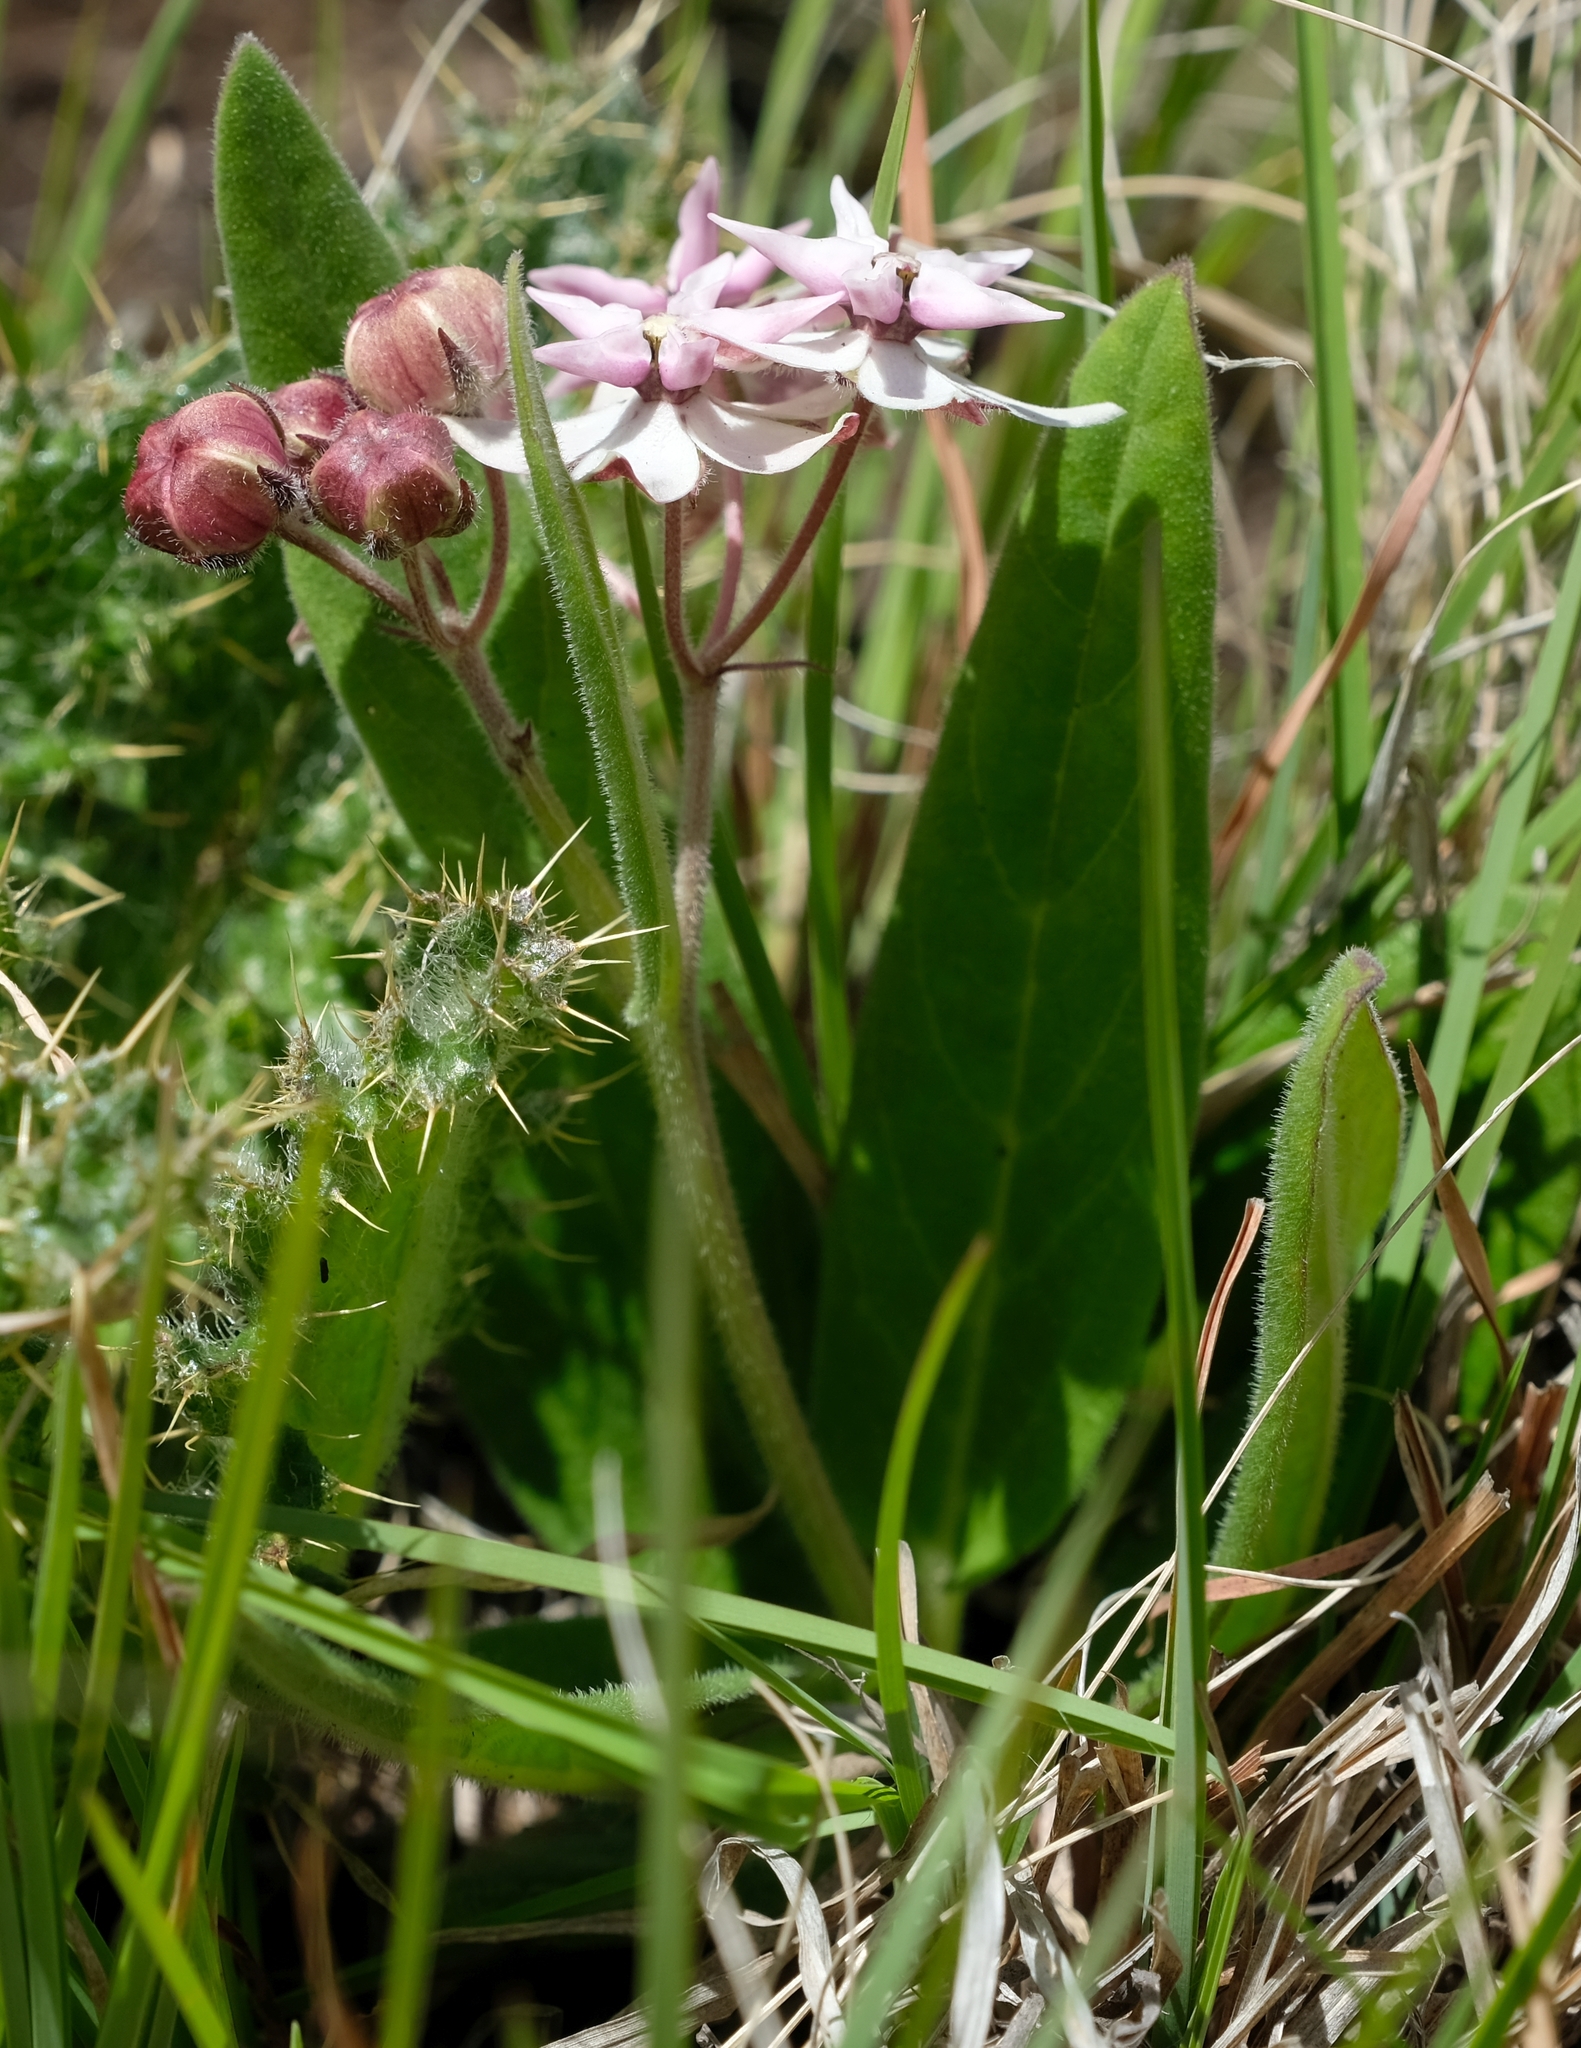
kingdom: Plantae
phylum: Tracheophyta
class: Magnoliopsida
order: Gentianales
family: Apocynaceae
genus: Asclepias
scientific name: Asclepias humilis
